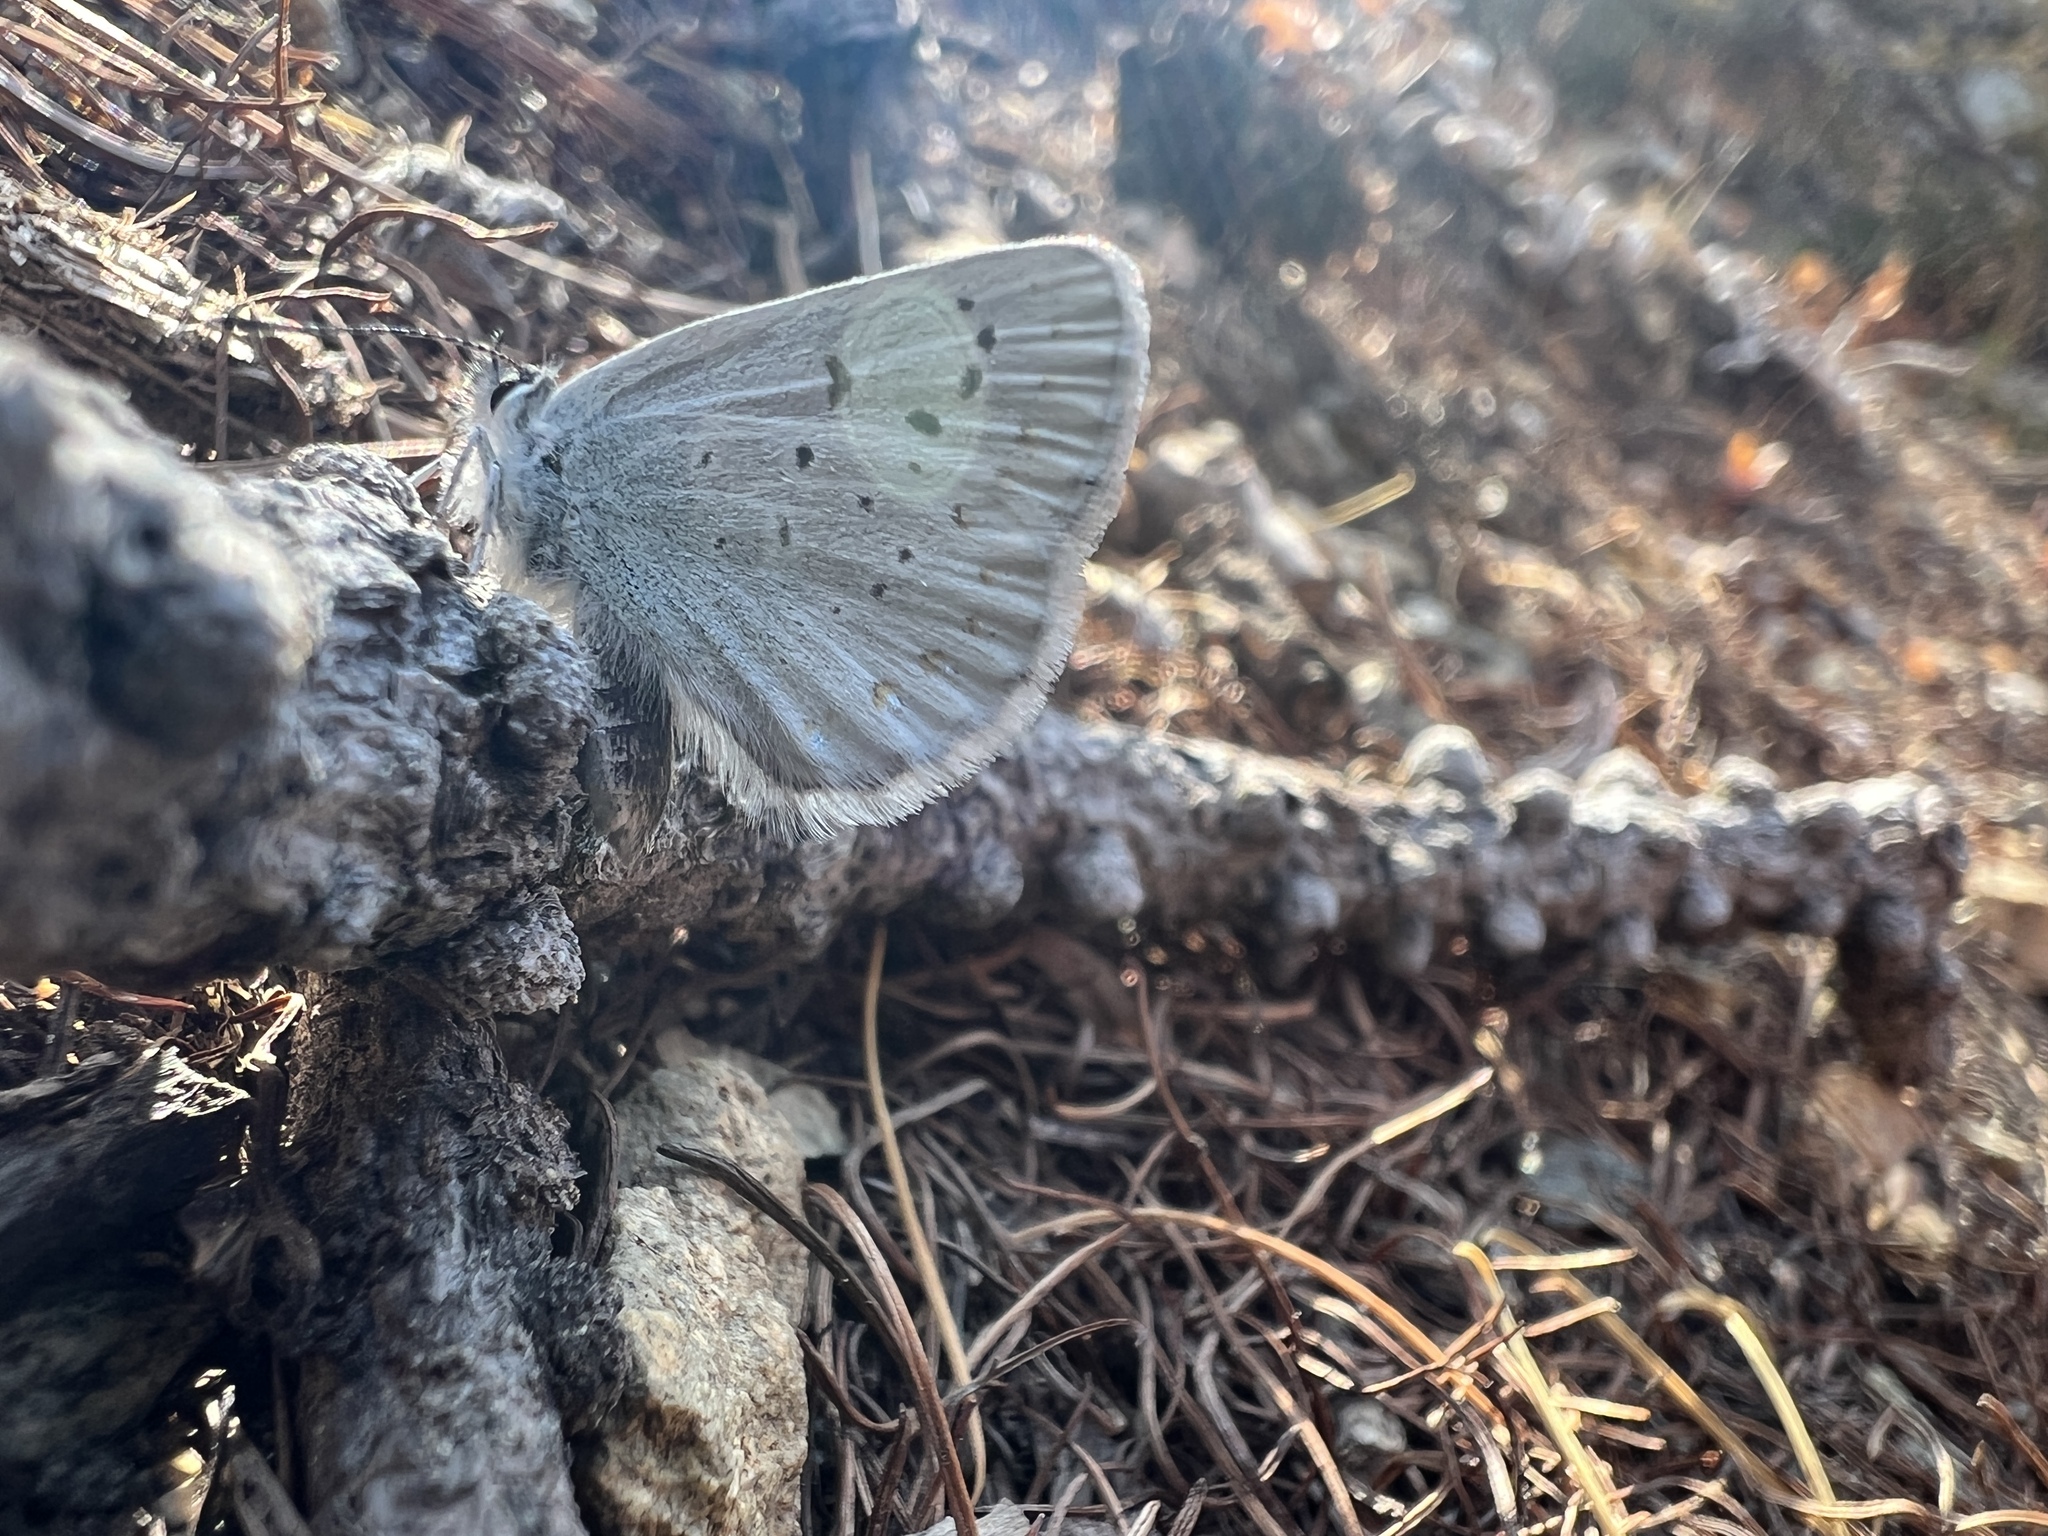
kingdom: Animalia
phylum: Arthropoda
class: Insecta
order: Lepidoptera
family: Lycaenidae
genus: Lycaeides
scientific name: Lycaeides anna
